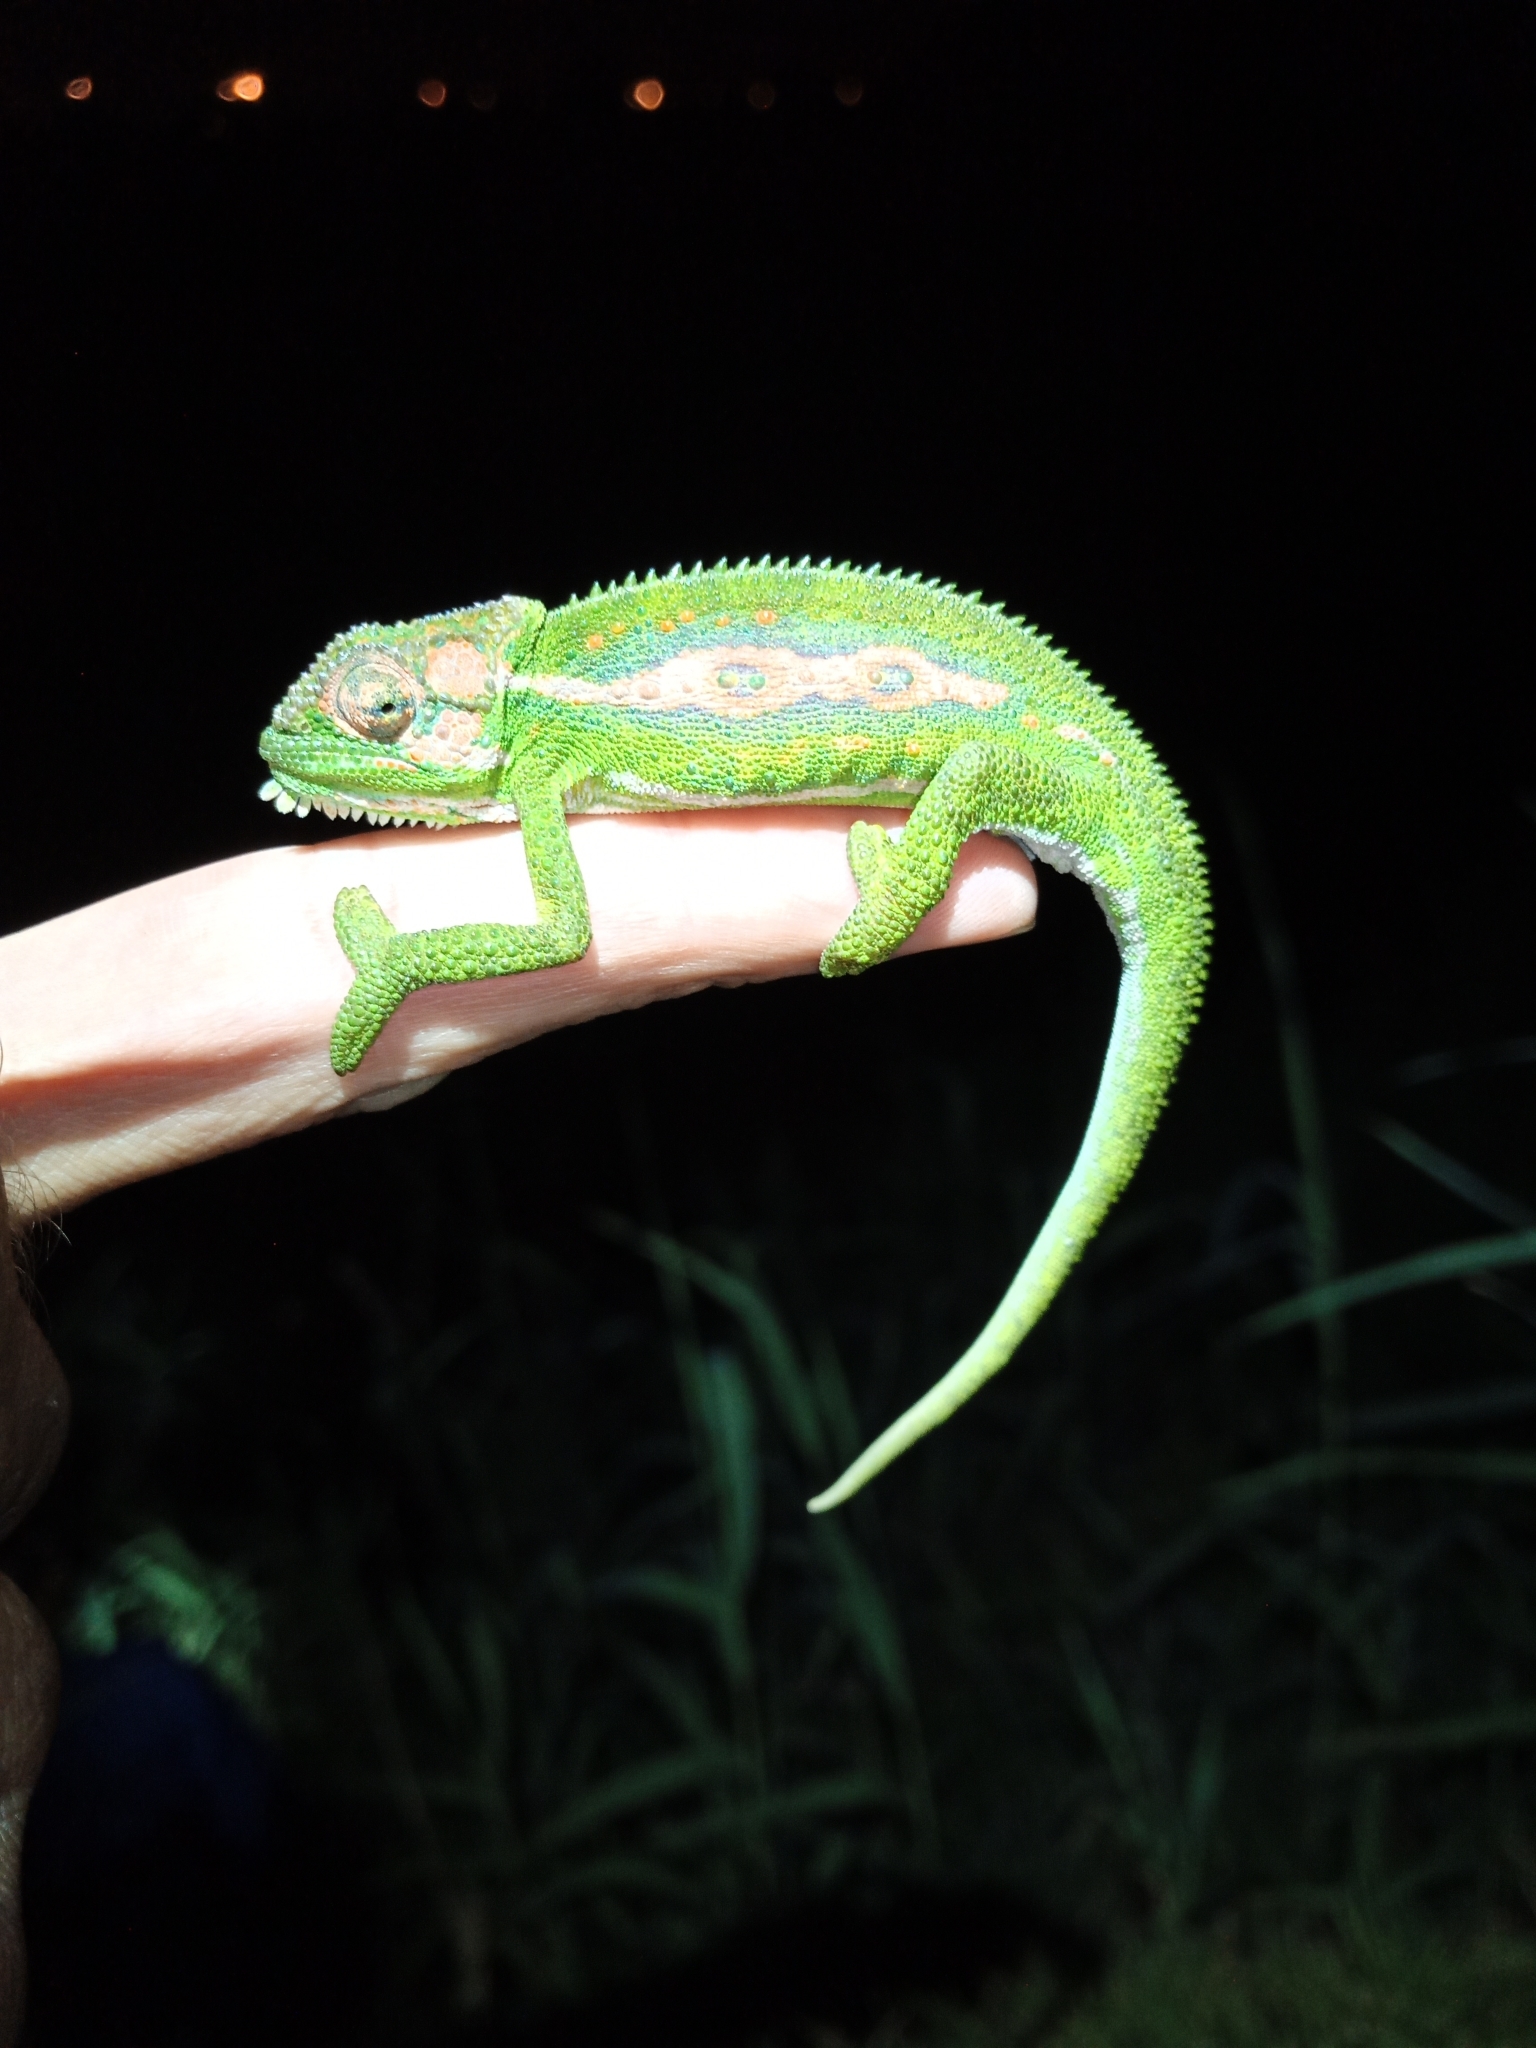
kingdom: Animalia
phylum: Chordata
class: Squamata
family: Chamaeleonidae
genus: Bradypodion
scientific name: Bradypodion pumilum
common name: Cape dwarf chameleon
